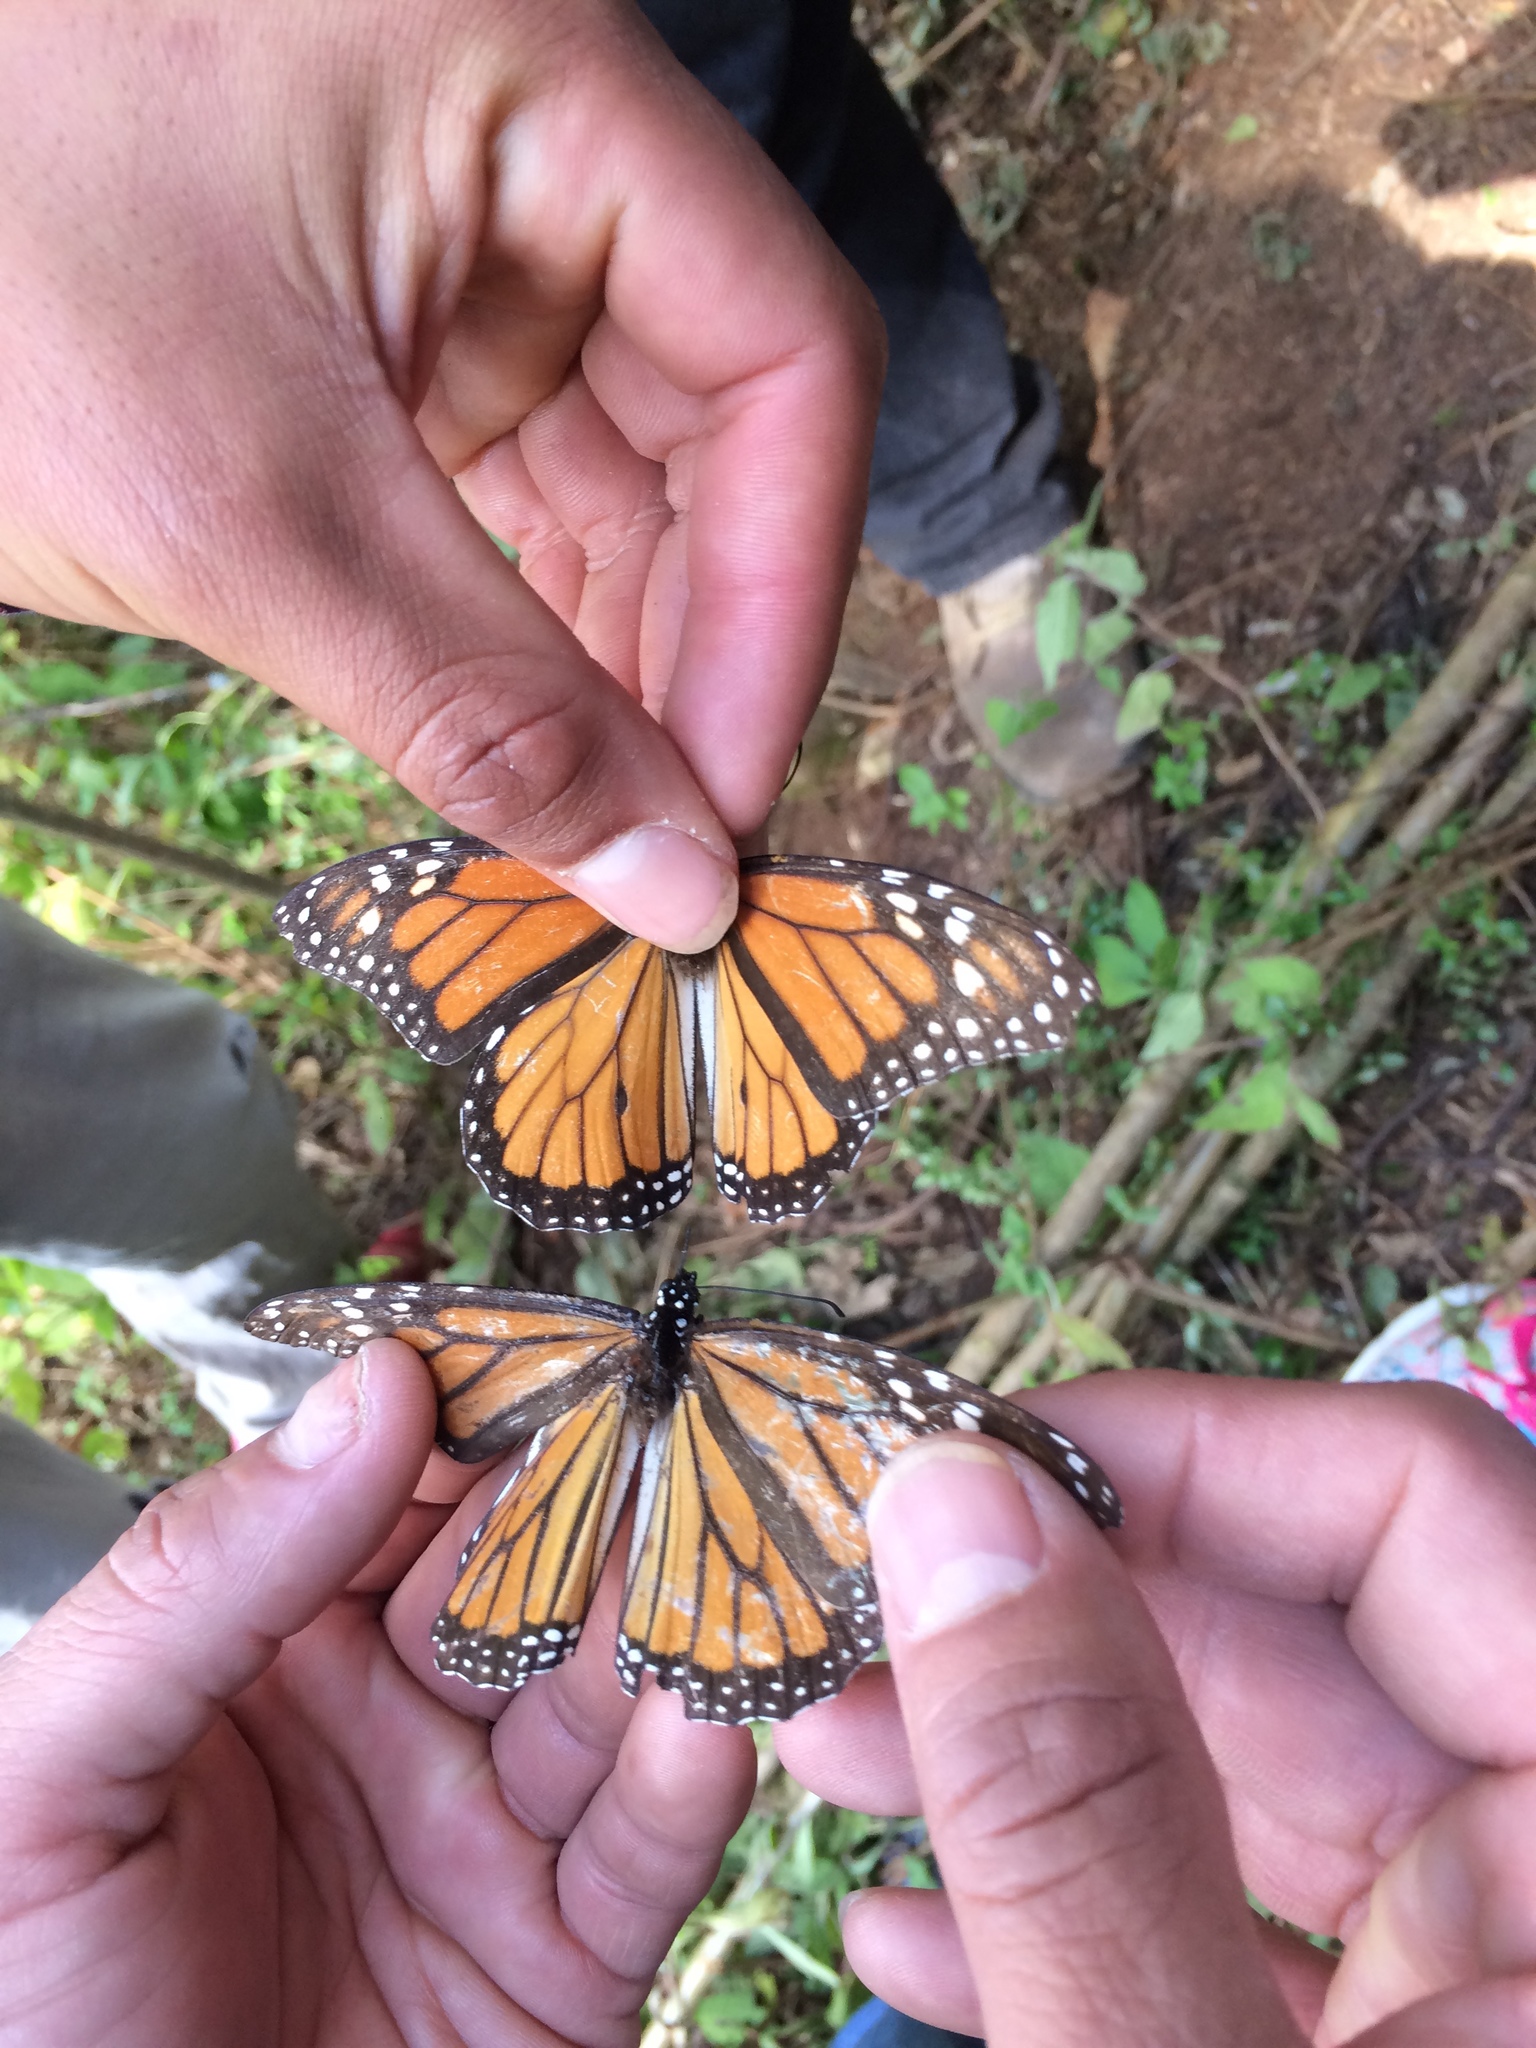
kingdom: Animalia
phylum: Arthropoda
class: Insecta
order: Lepidoptera
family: Nymphalidae
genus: Danaus
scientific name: Danaus plexippus
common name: Monarch
